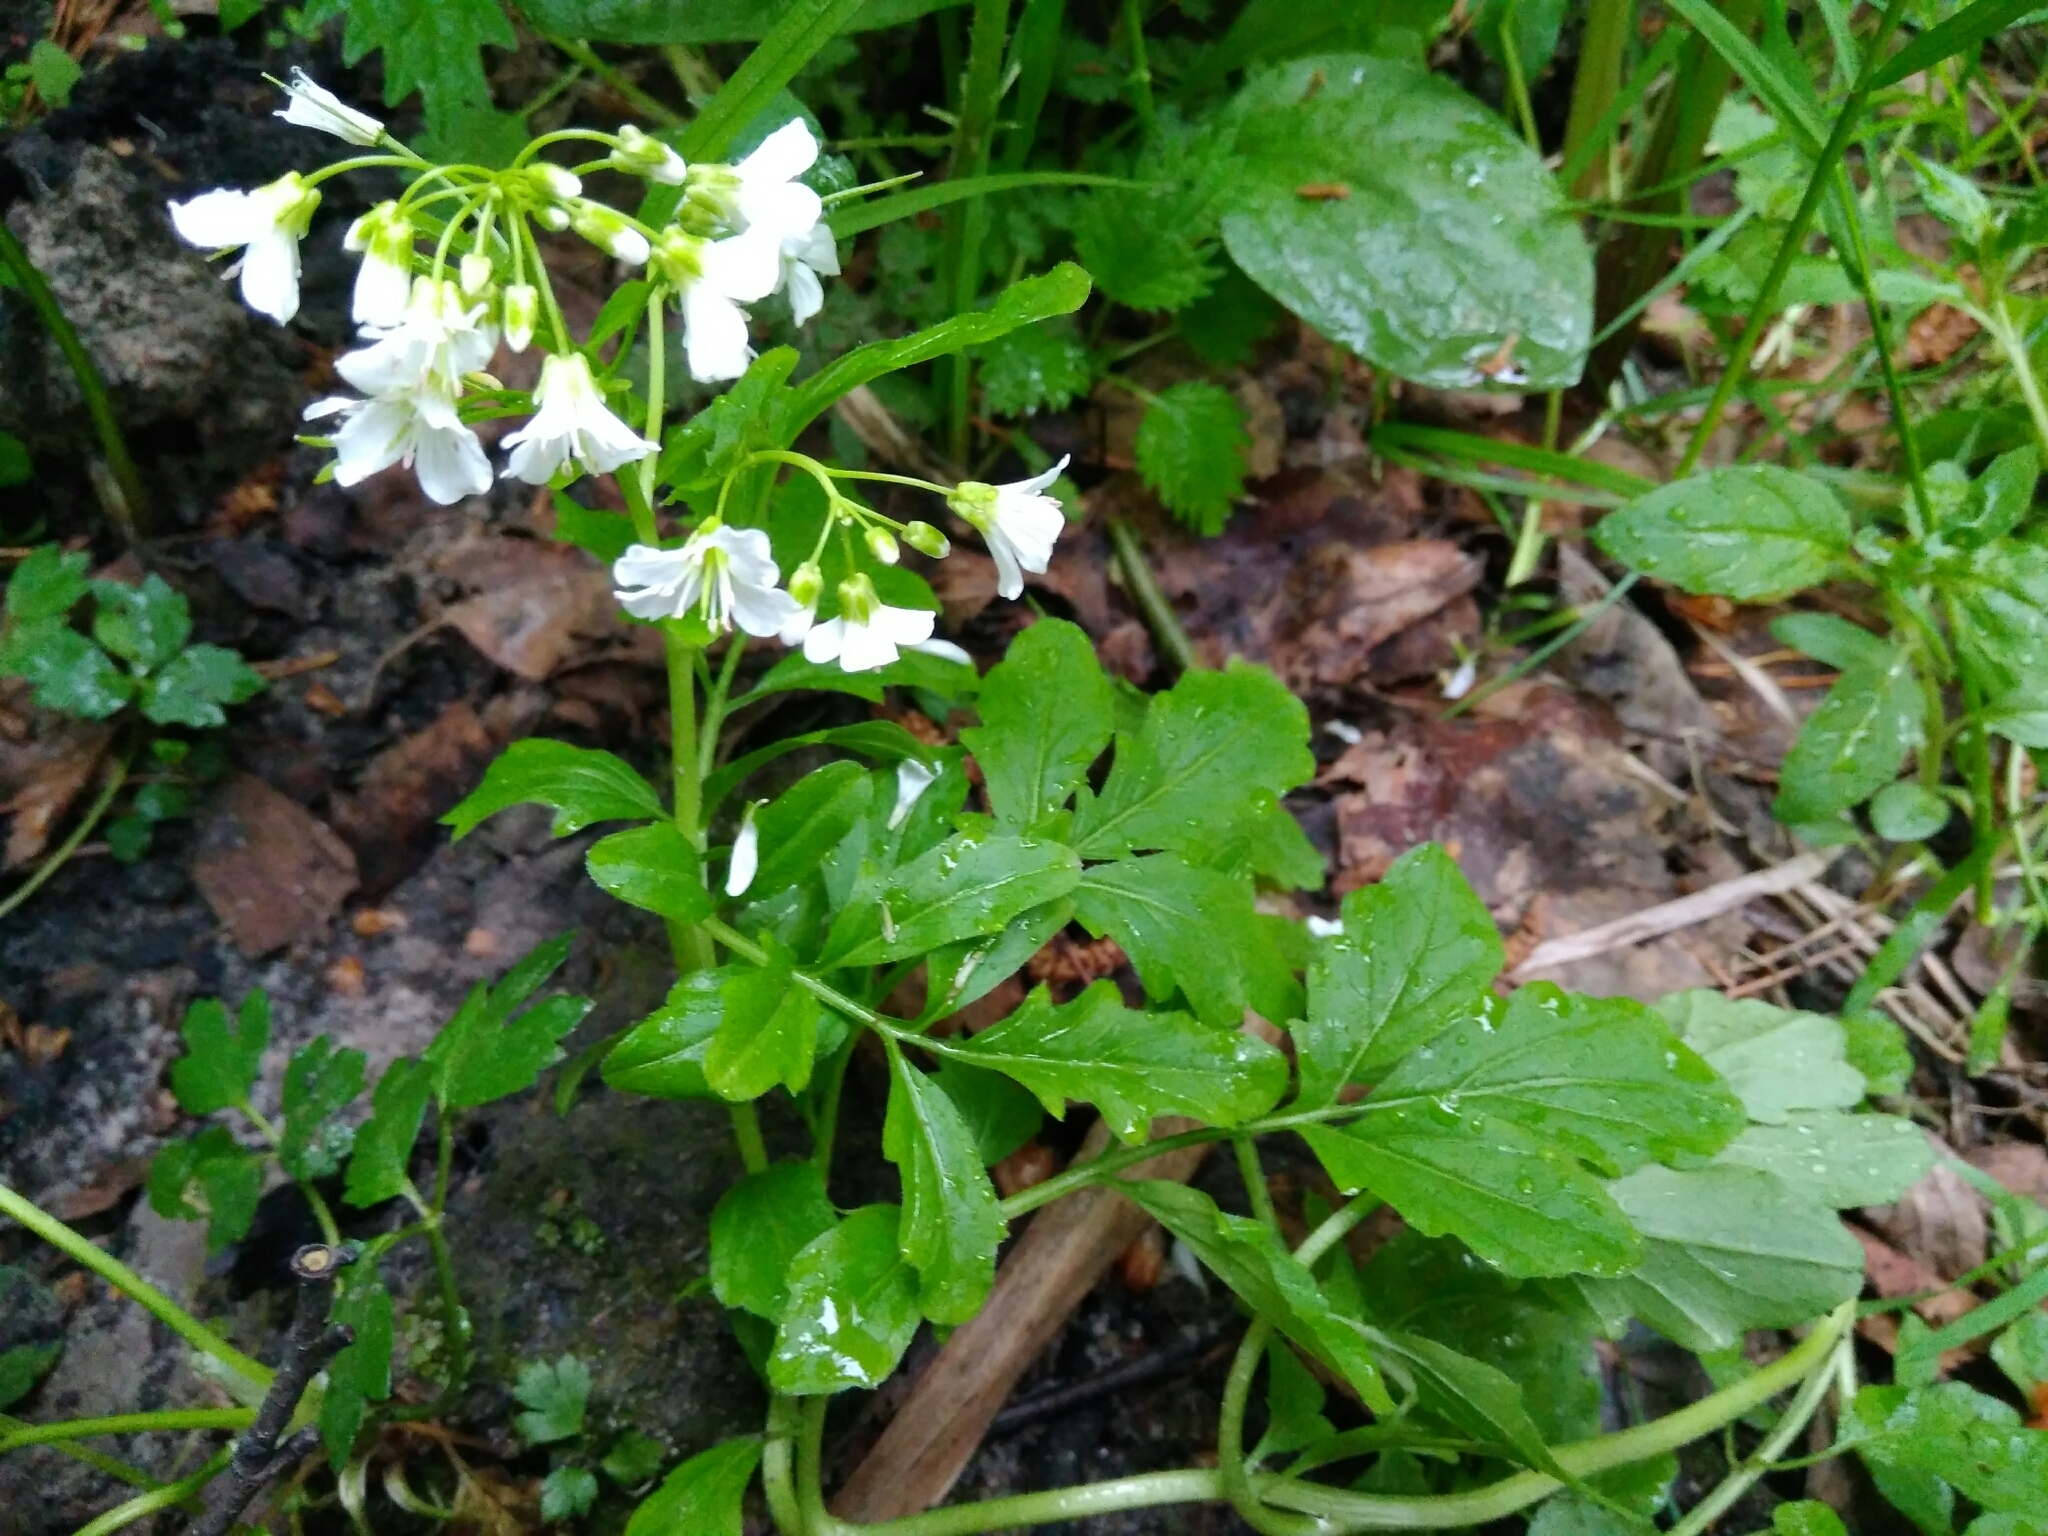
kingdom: Plantae
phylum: Tracheophyta
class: Magnoliopsida
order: Brassicales
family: Brassicaceae
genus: Cardamine
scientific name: Cardamine amara
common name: Large bitter-cress
